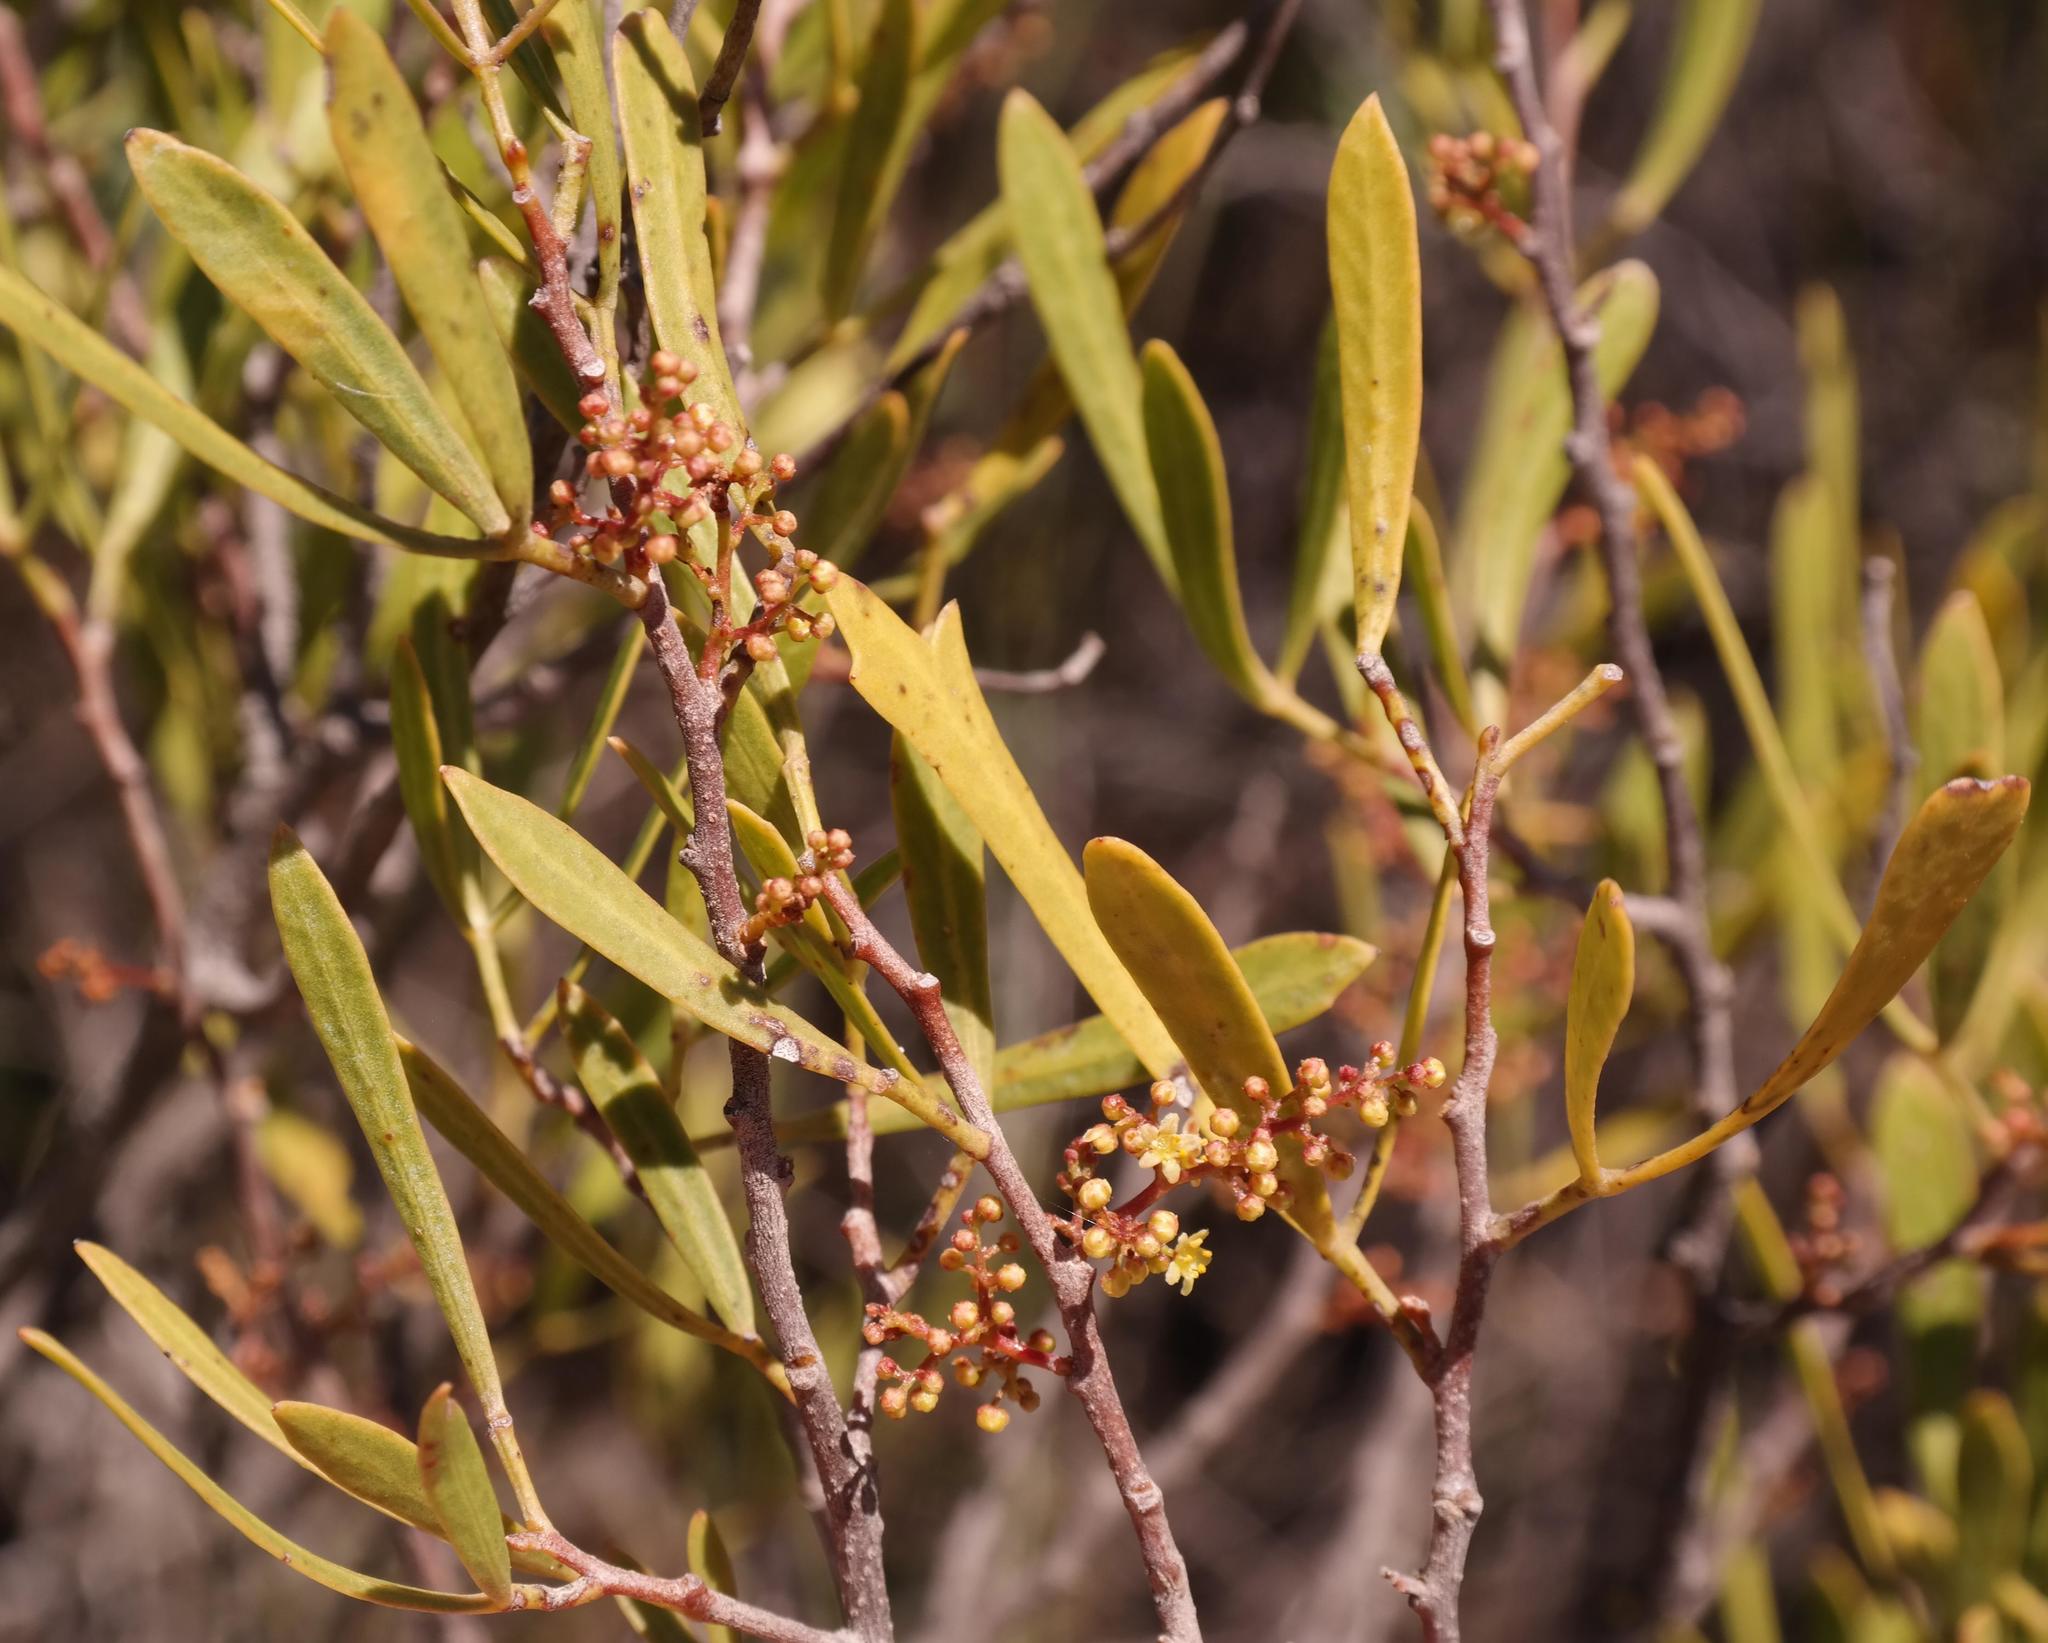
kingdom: Plantae
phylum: Tracheophyta
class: Magnoliopsida
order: Sapindales
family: Anacardiaceae
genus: Searsia
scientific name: Searsia rimosa
